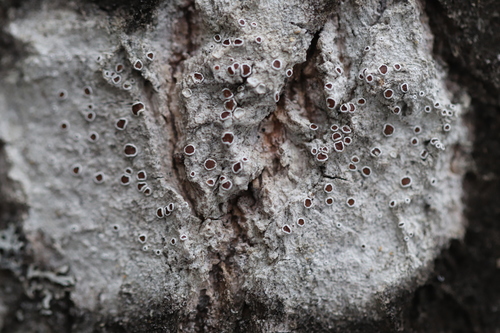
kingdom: Fungi
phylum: Ascomycota
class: Lecanoromycetes
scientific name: Lecanoromycetes
